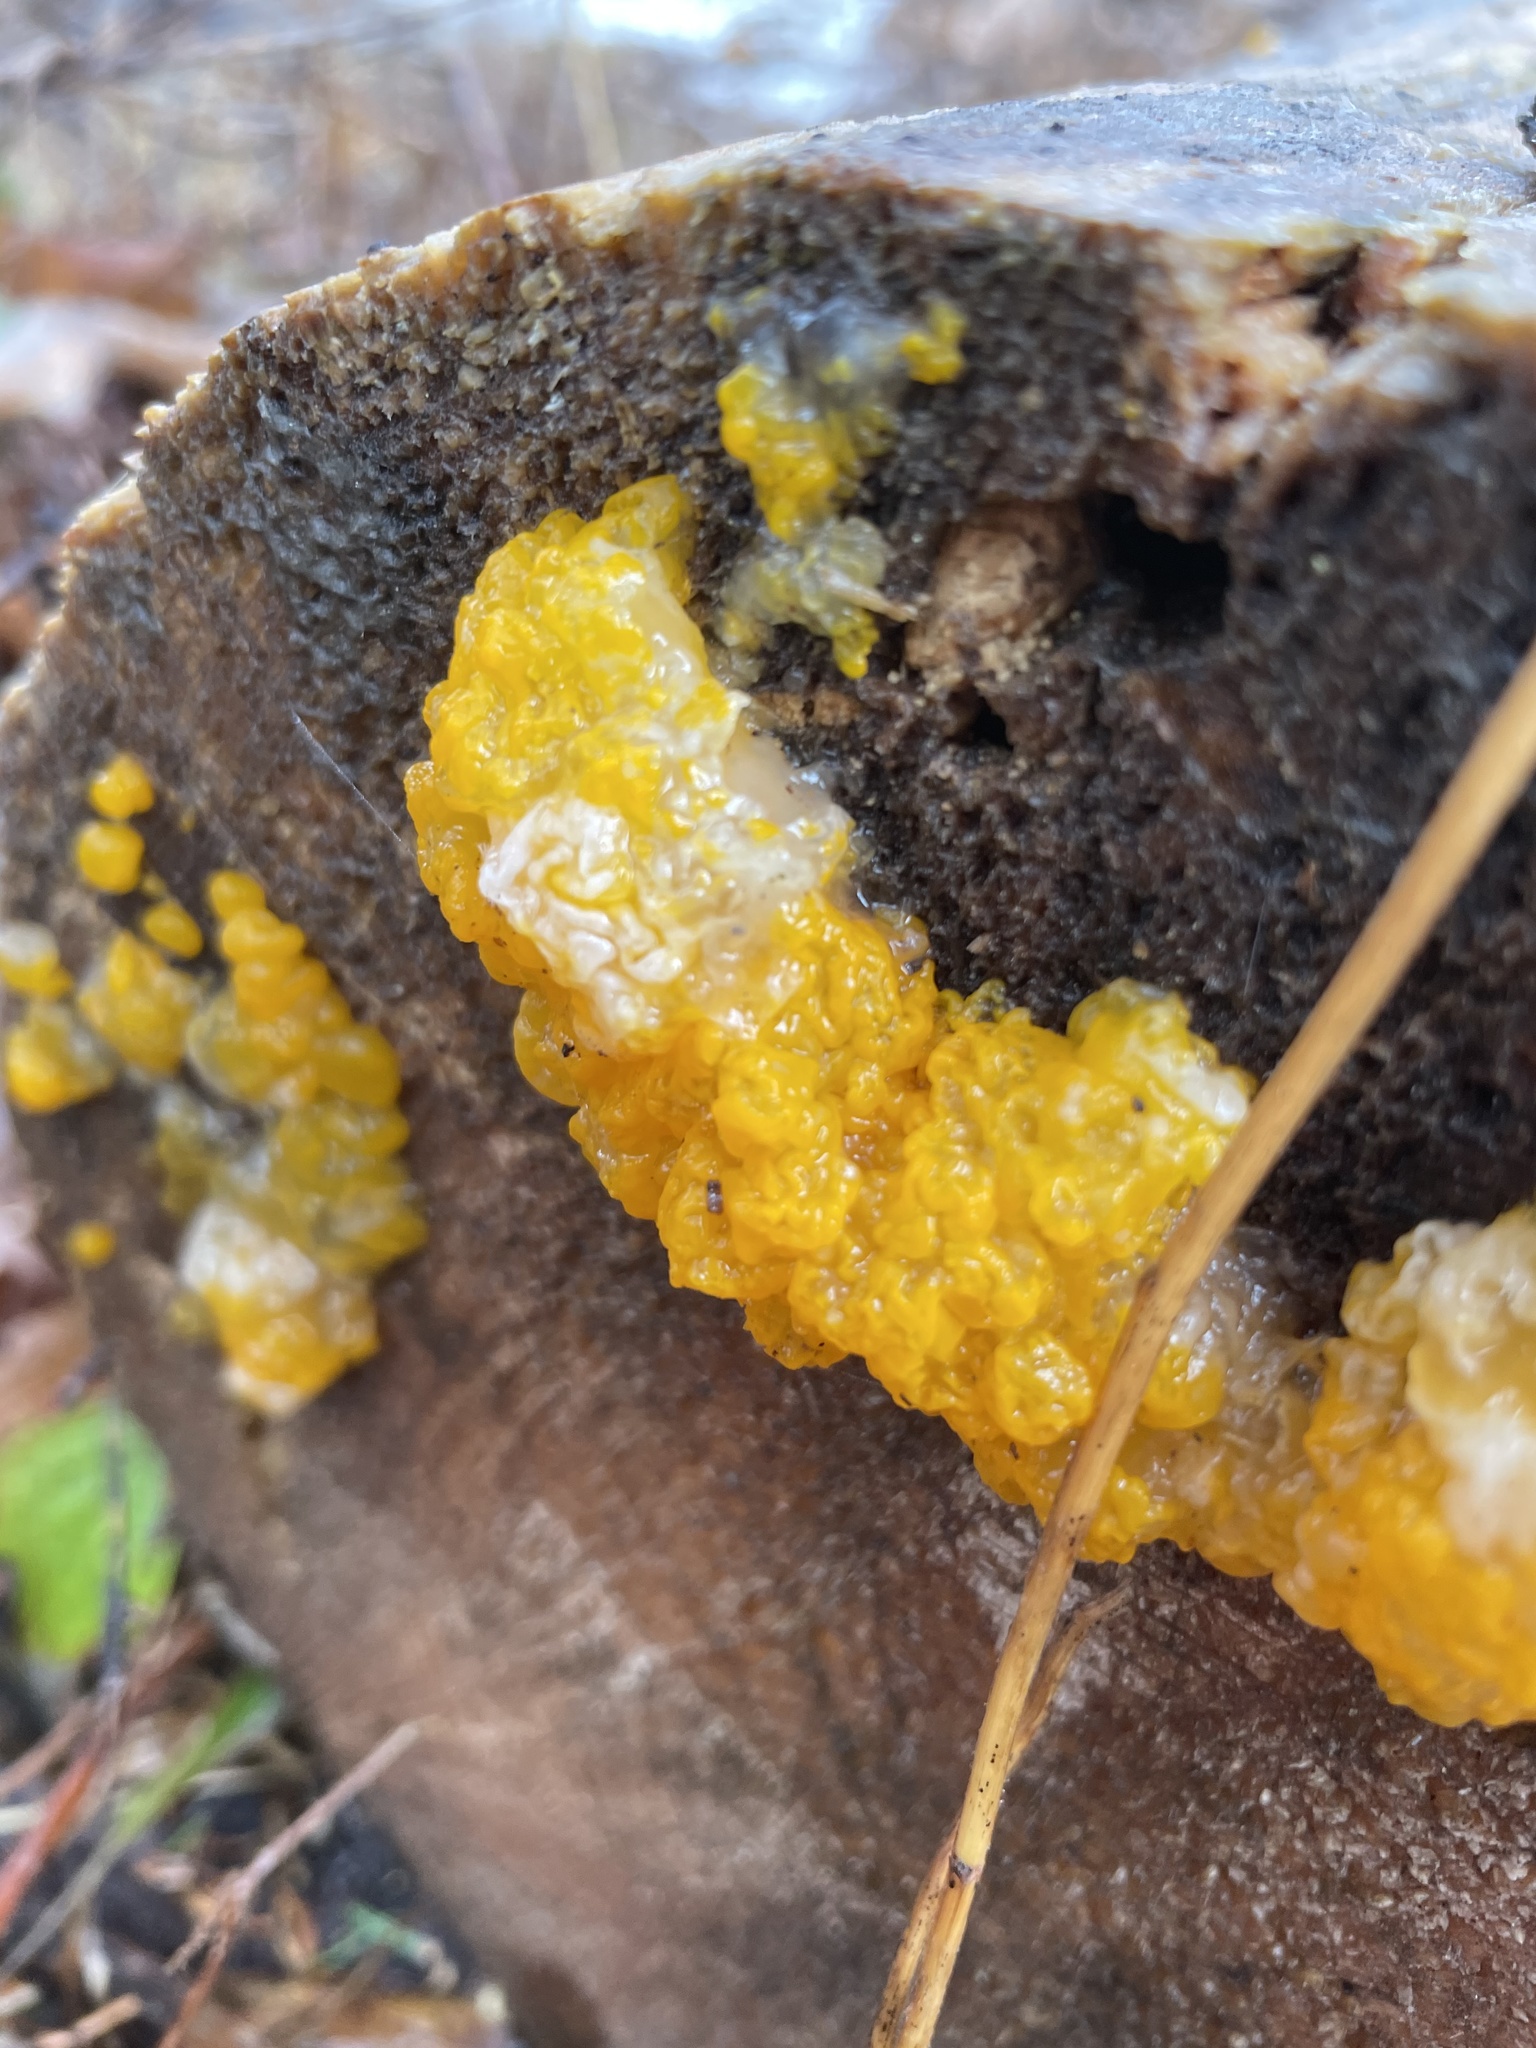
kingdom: Fungi
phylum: Basidiomycota
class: Tremellomycetes
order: Tremellales
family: Tremellaceae
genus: Tremella
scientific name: Tremella mesenterica
